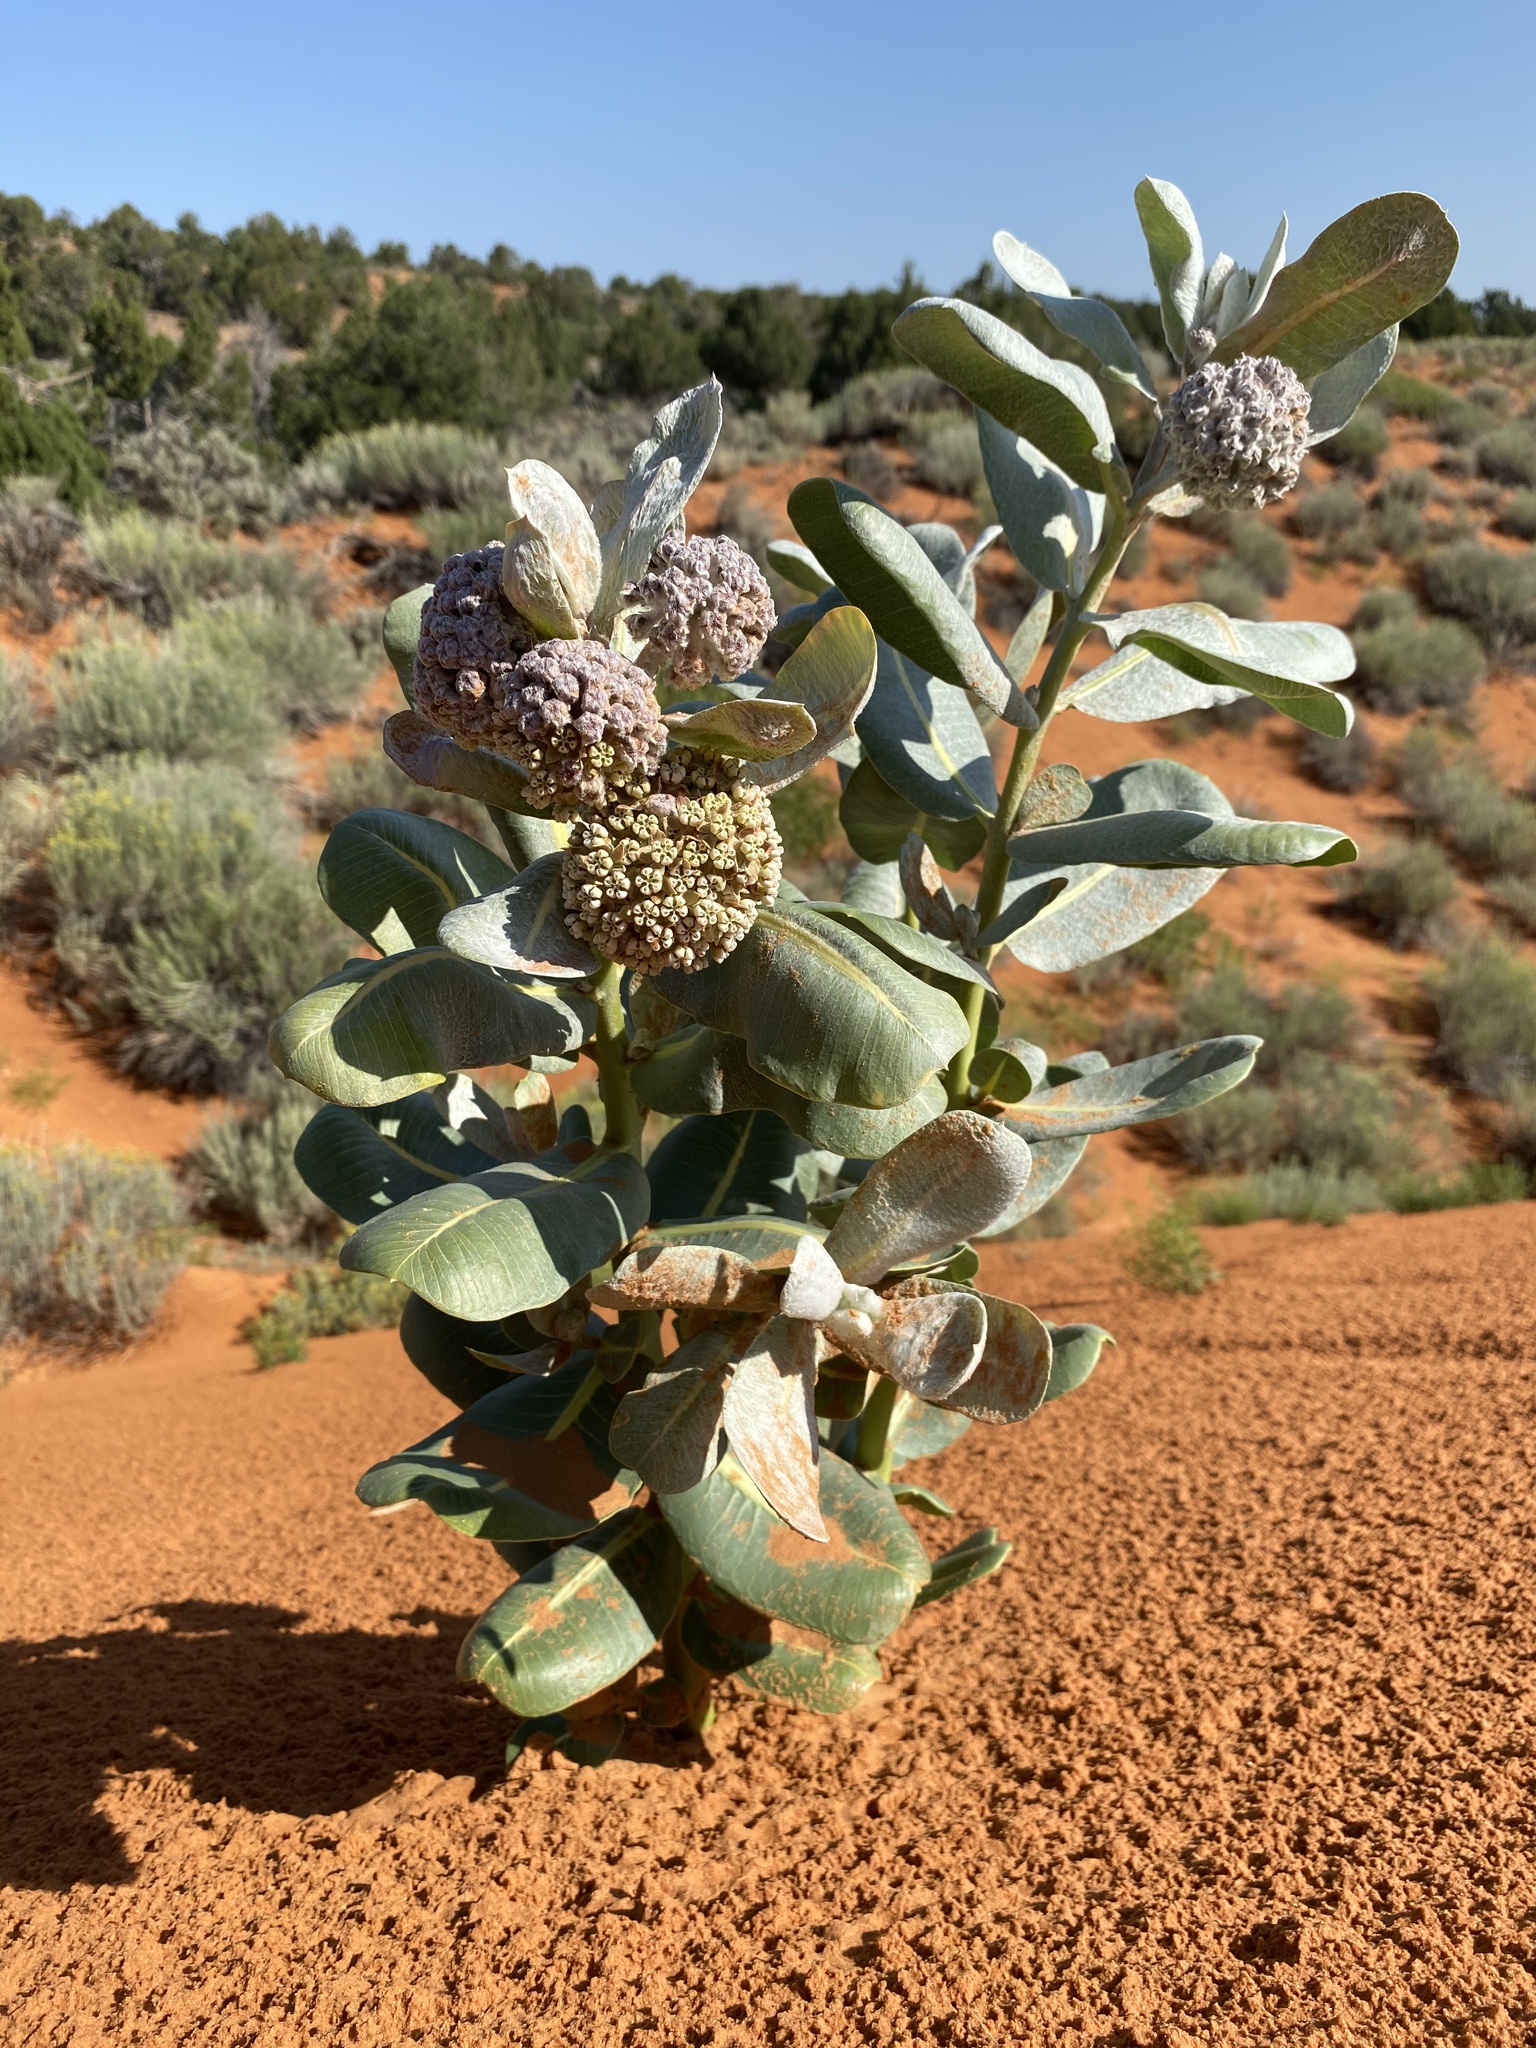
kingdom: Plantae
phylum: Tracheophyta
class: Magnoliopsida
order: Gentianales
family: Apocynaceae
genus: Asclepias
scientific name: Asclepias welshii
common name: Welsch's milkweed
